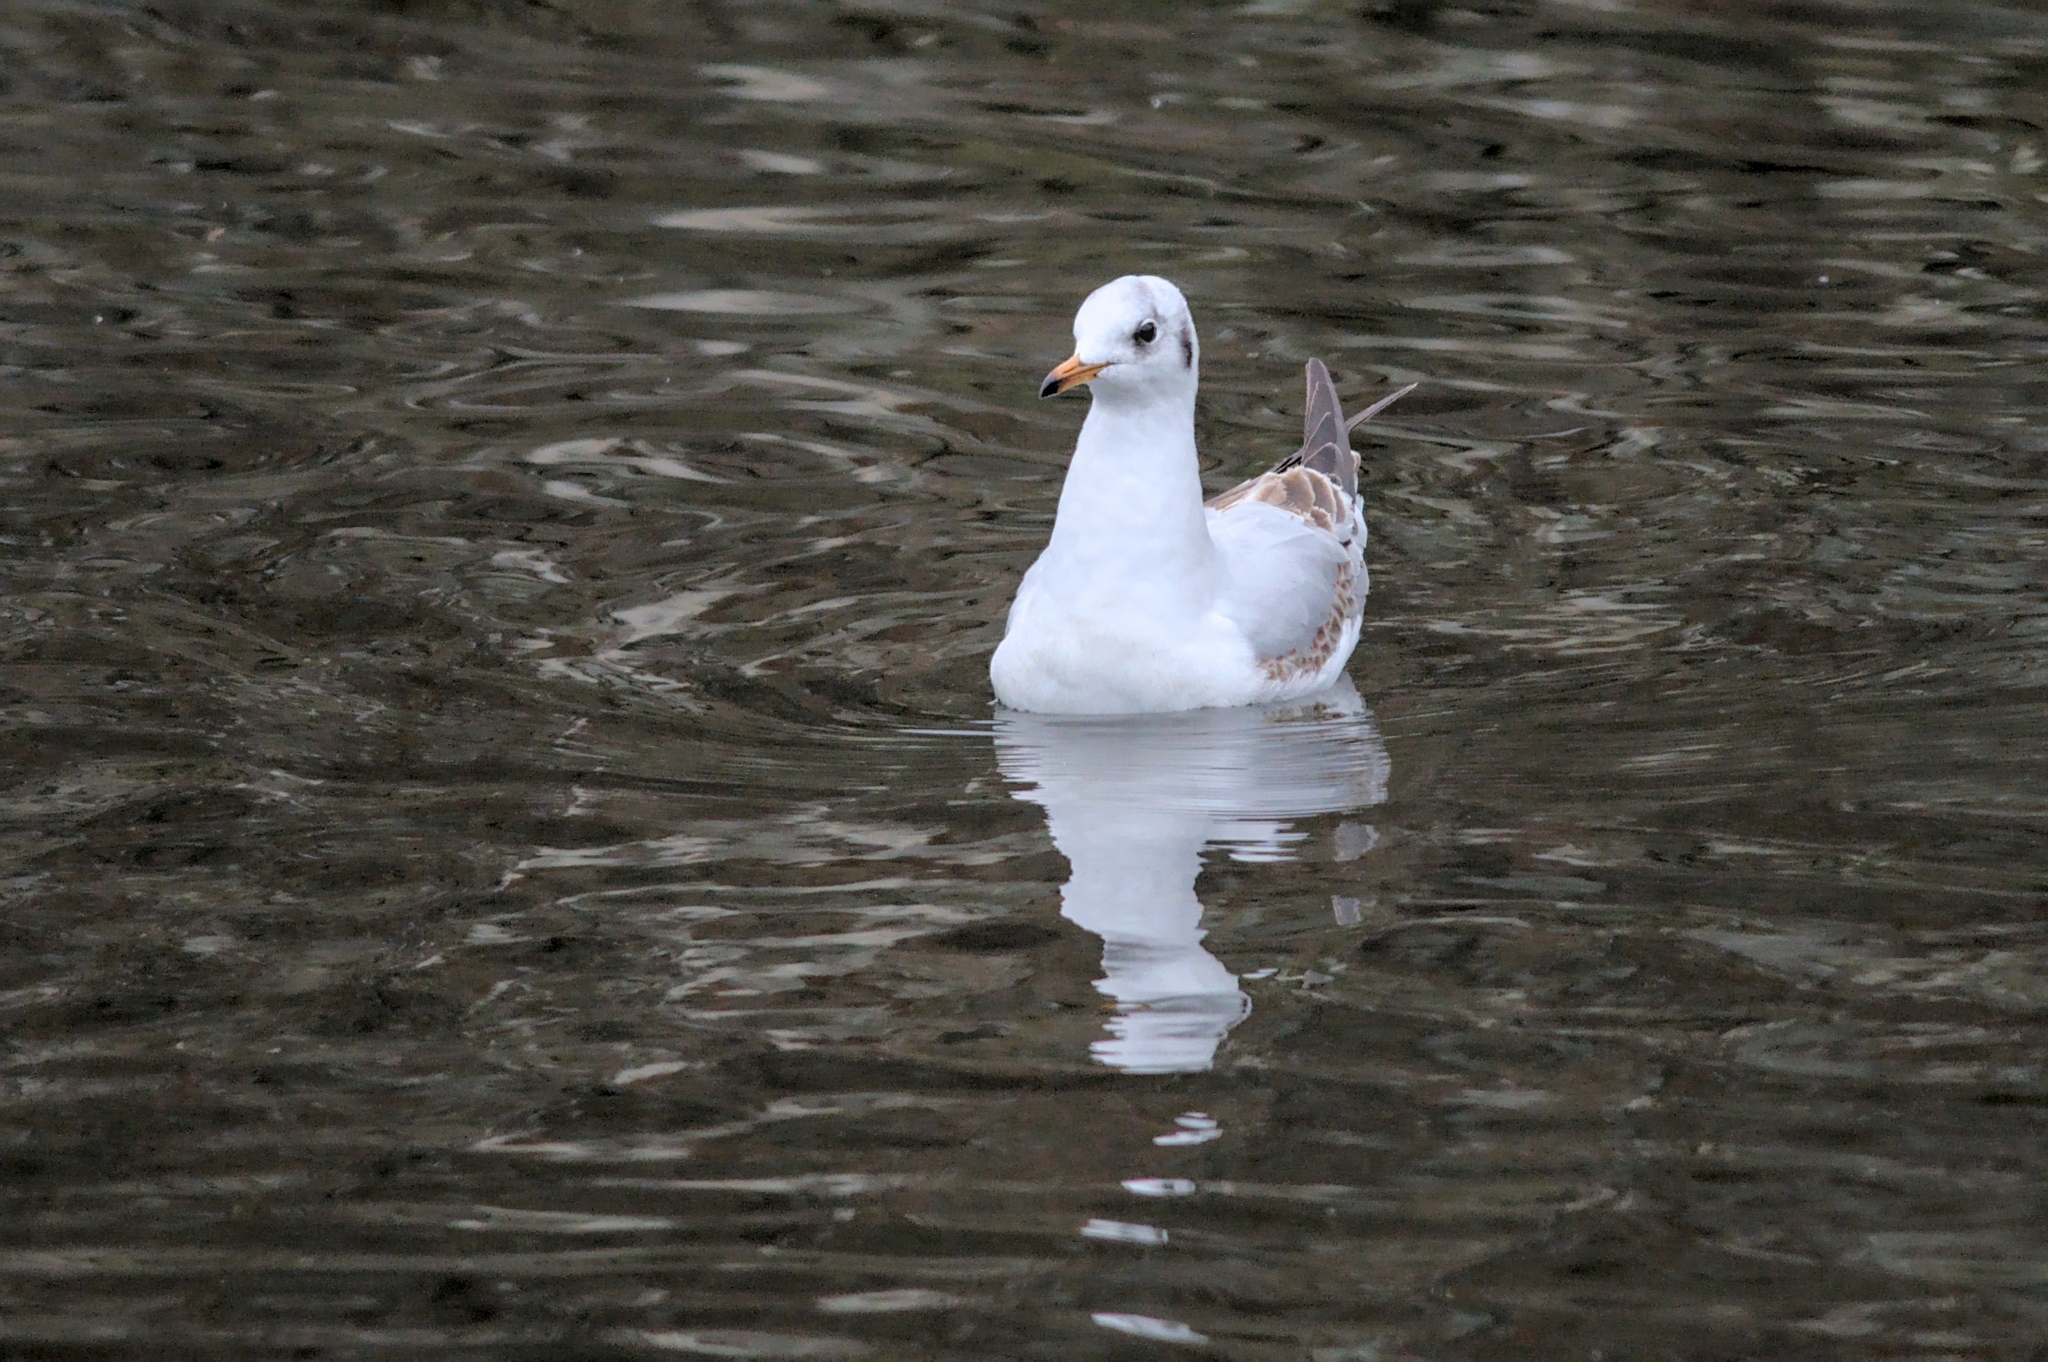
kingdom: Animalia
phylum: Chordata
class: Aves
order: Charadriiformes
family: Laridae
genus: Chroicocephalus
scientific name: Chroicocephalus ridibundus
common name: Black-headed gull
